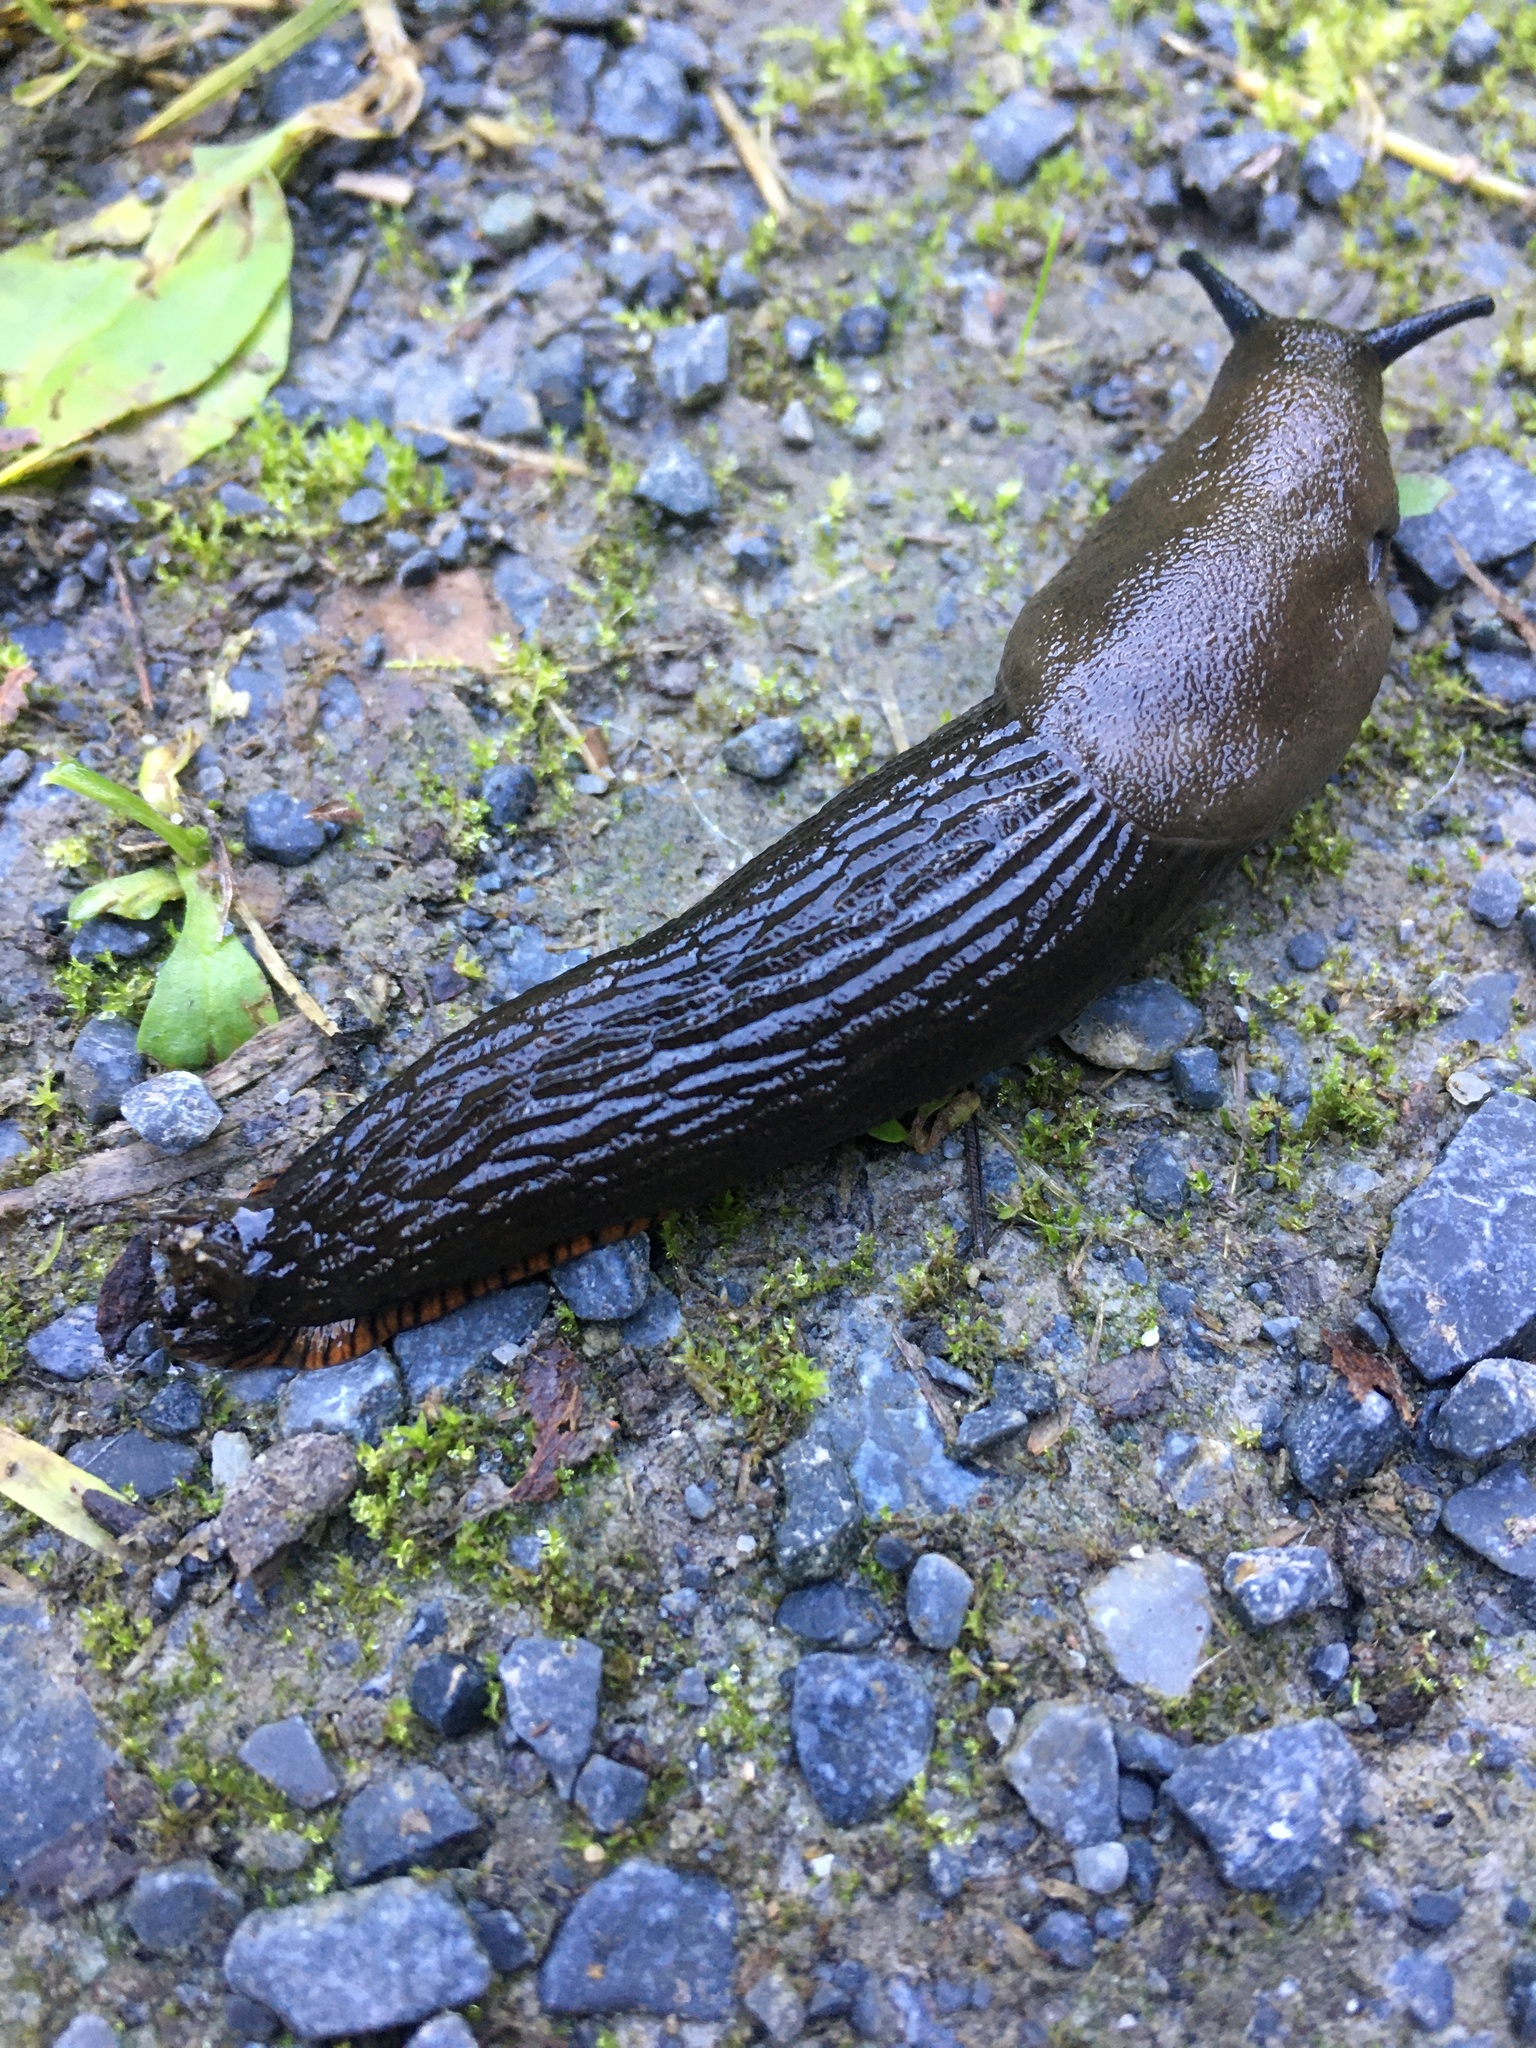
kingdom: Animalia
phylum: Mollusca
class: Gastropoda
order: Stylommatophora
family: Arionidae
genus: Arion
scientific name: Arion
